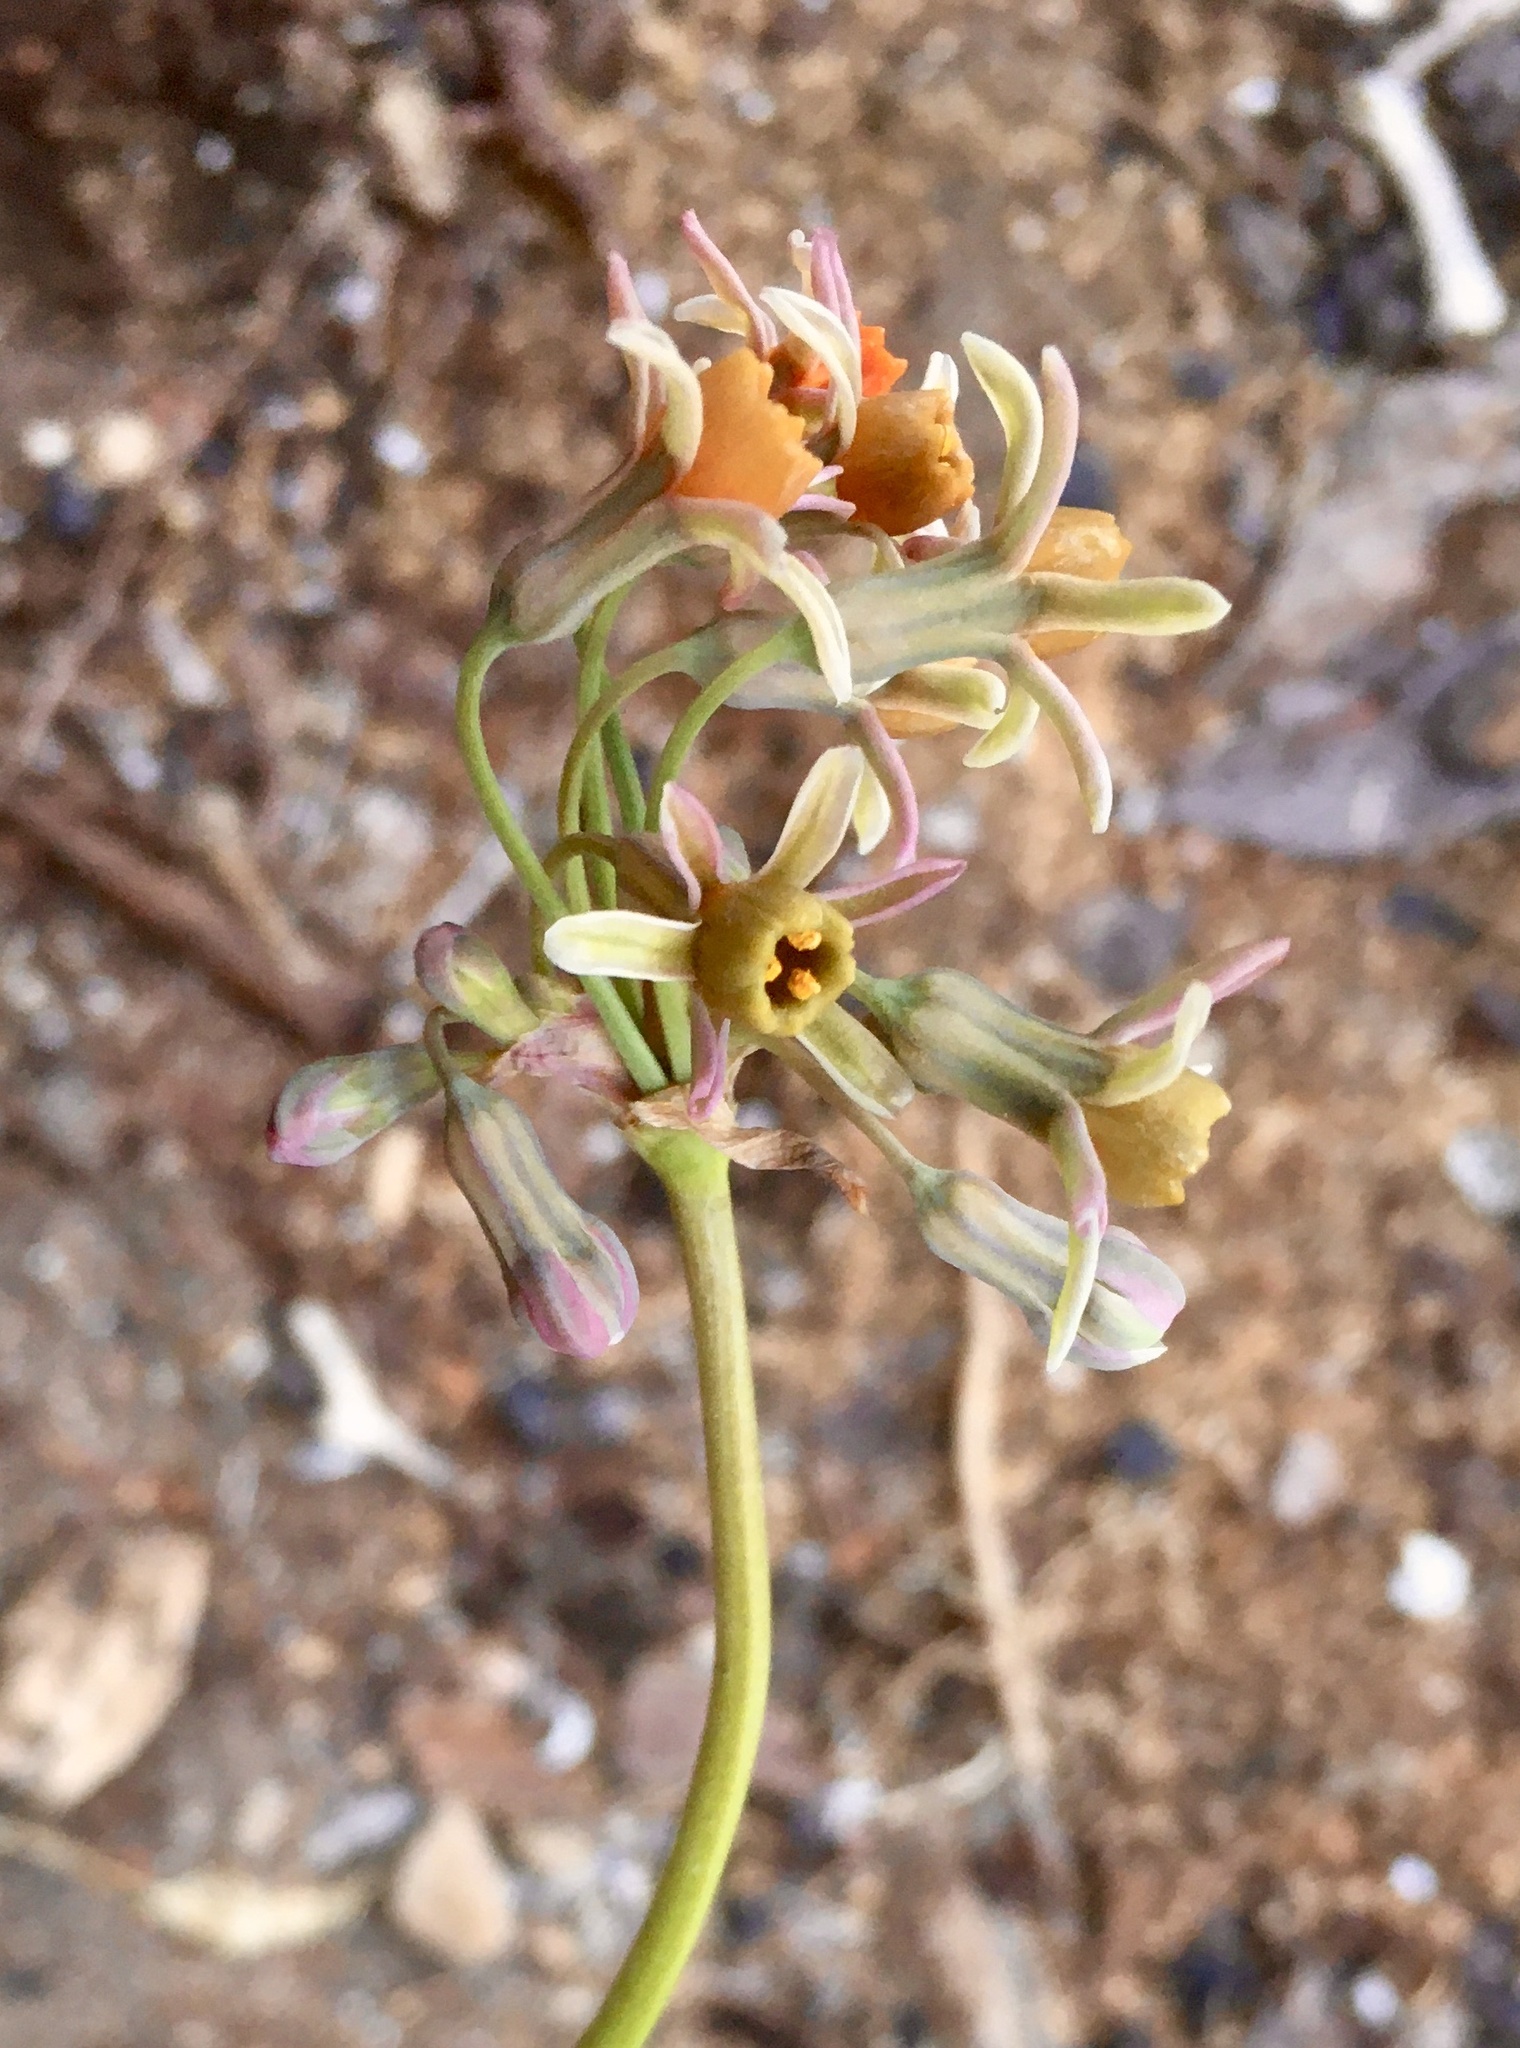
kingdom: Plantae
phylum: Tracheophyta
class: Liliopsida
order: Asparagales
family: Amaryllidaceae
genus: Tulbaghia
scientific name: Tulbaghia alliacea
